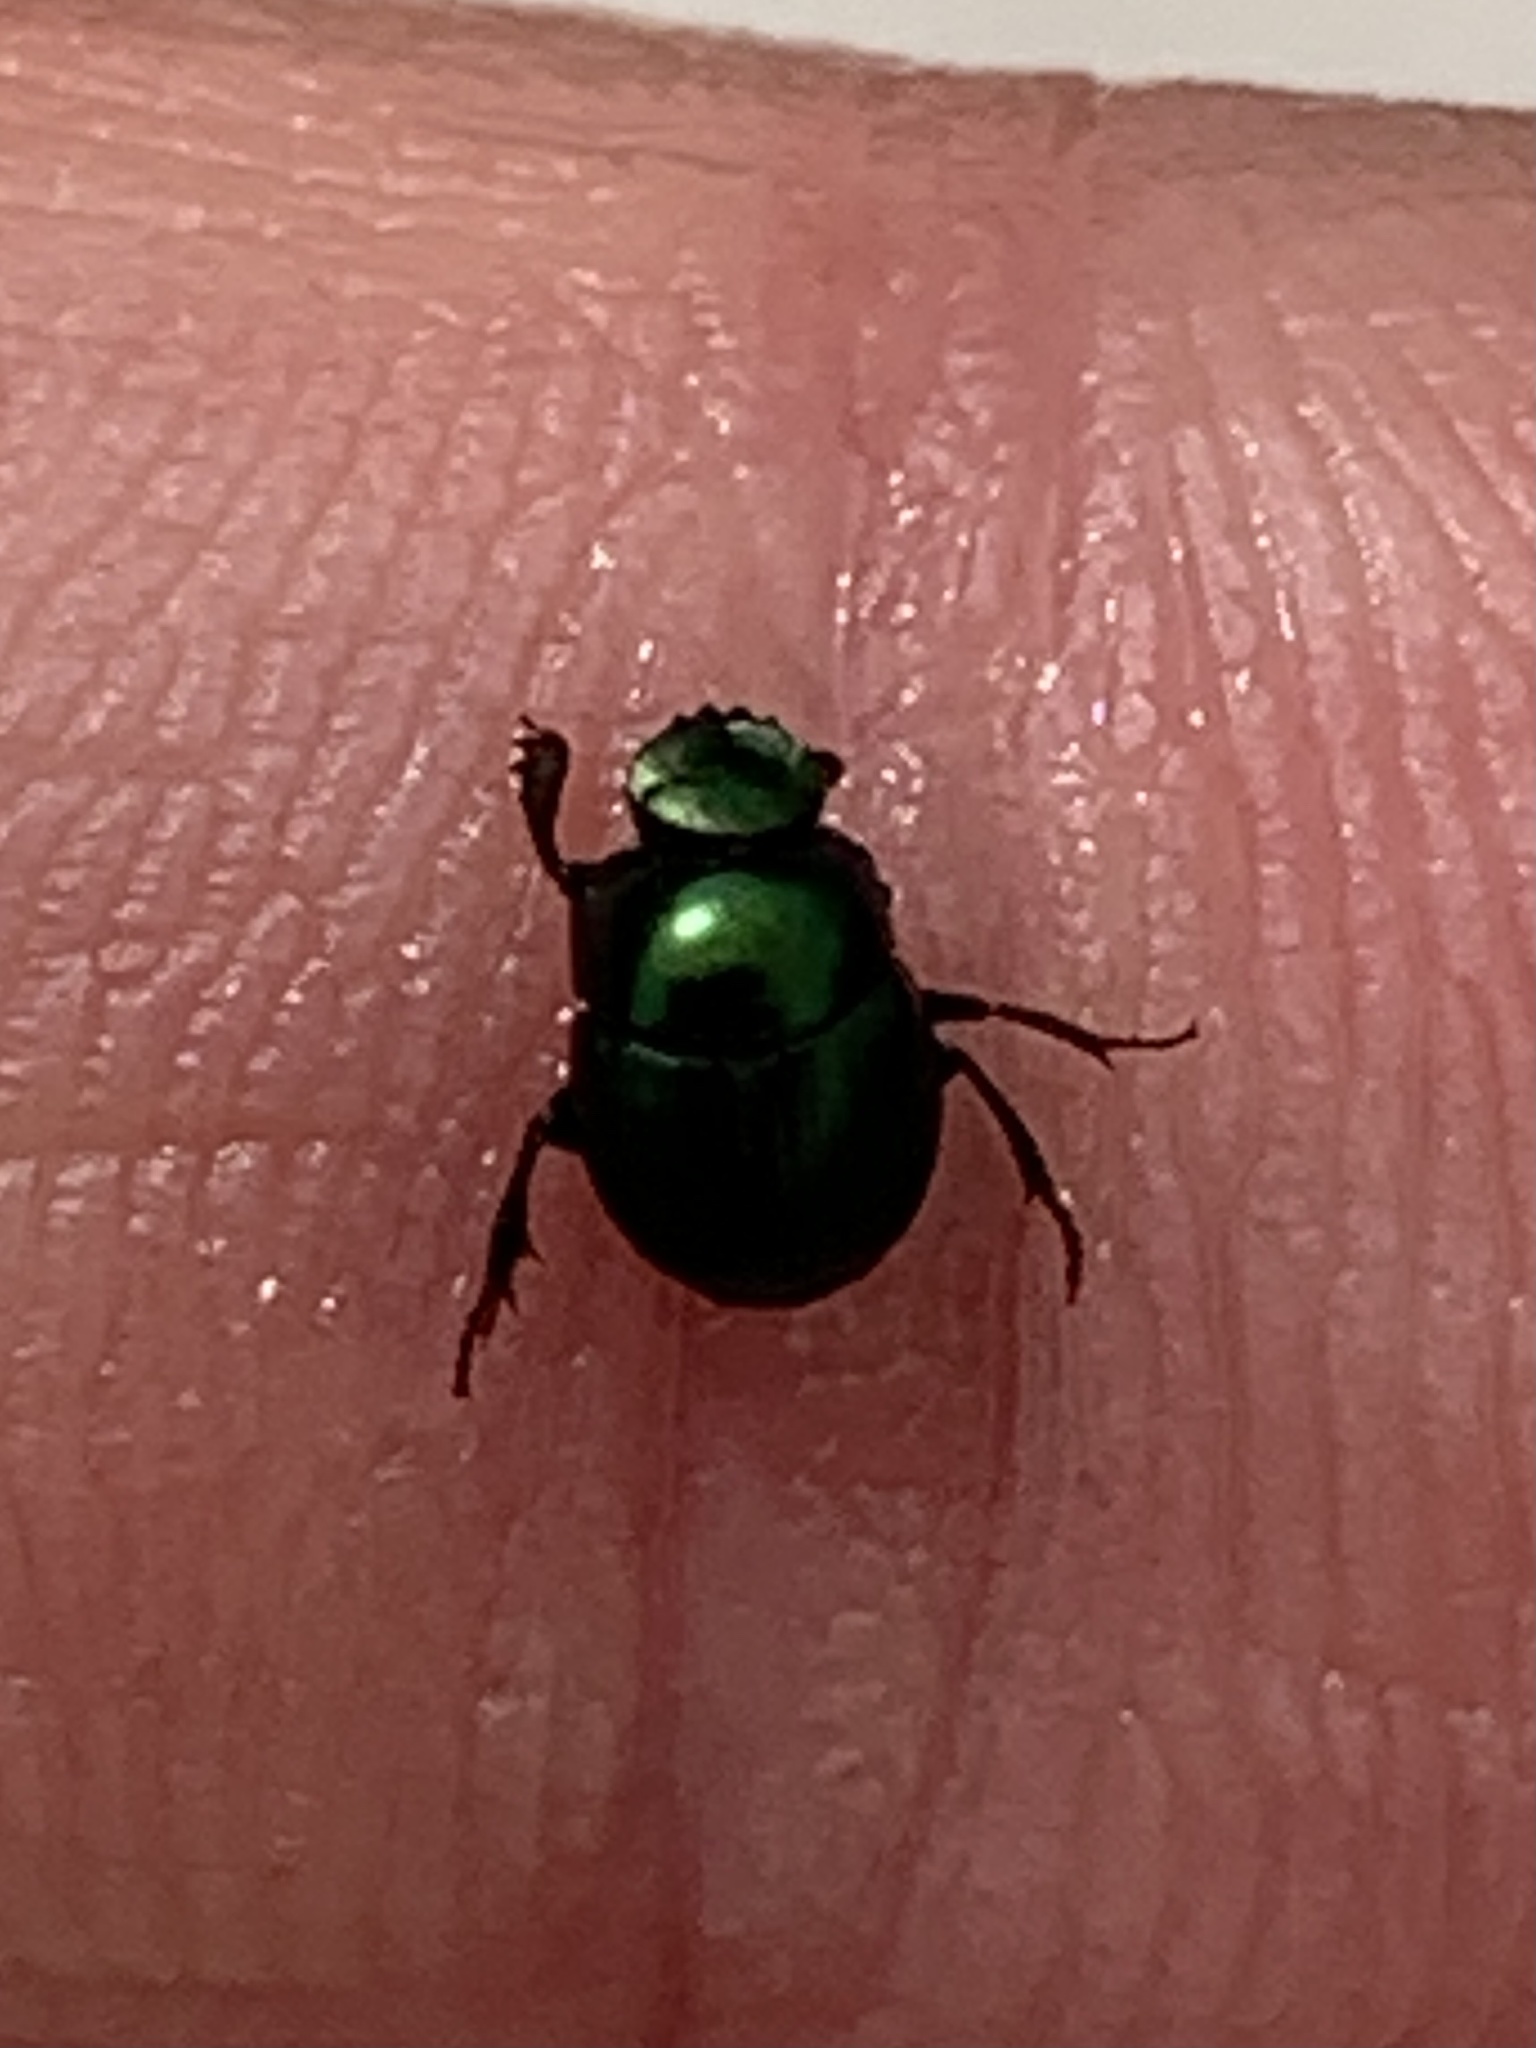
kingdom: Animalia
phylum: Arthropoda
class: Insecta
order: Coleoptera
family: Scarabaeidae
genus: Canthon
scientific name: Canthon viridis
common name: Tumblebug
